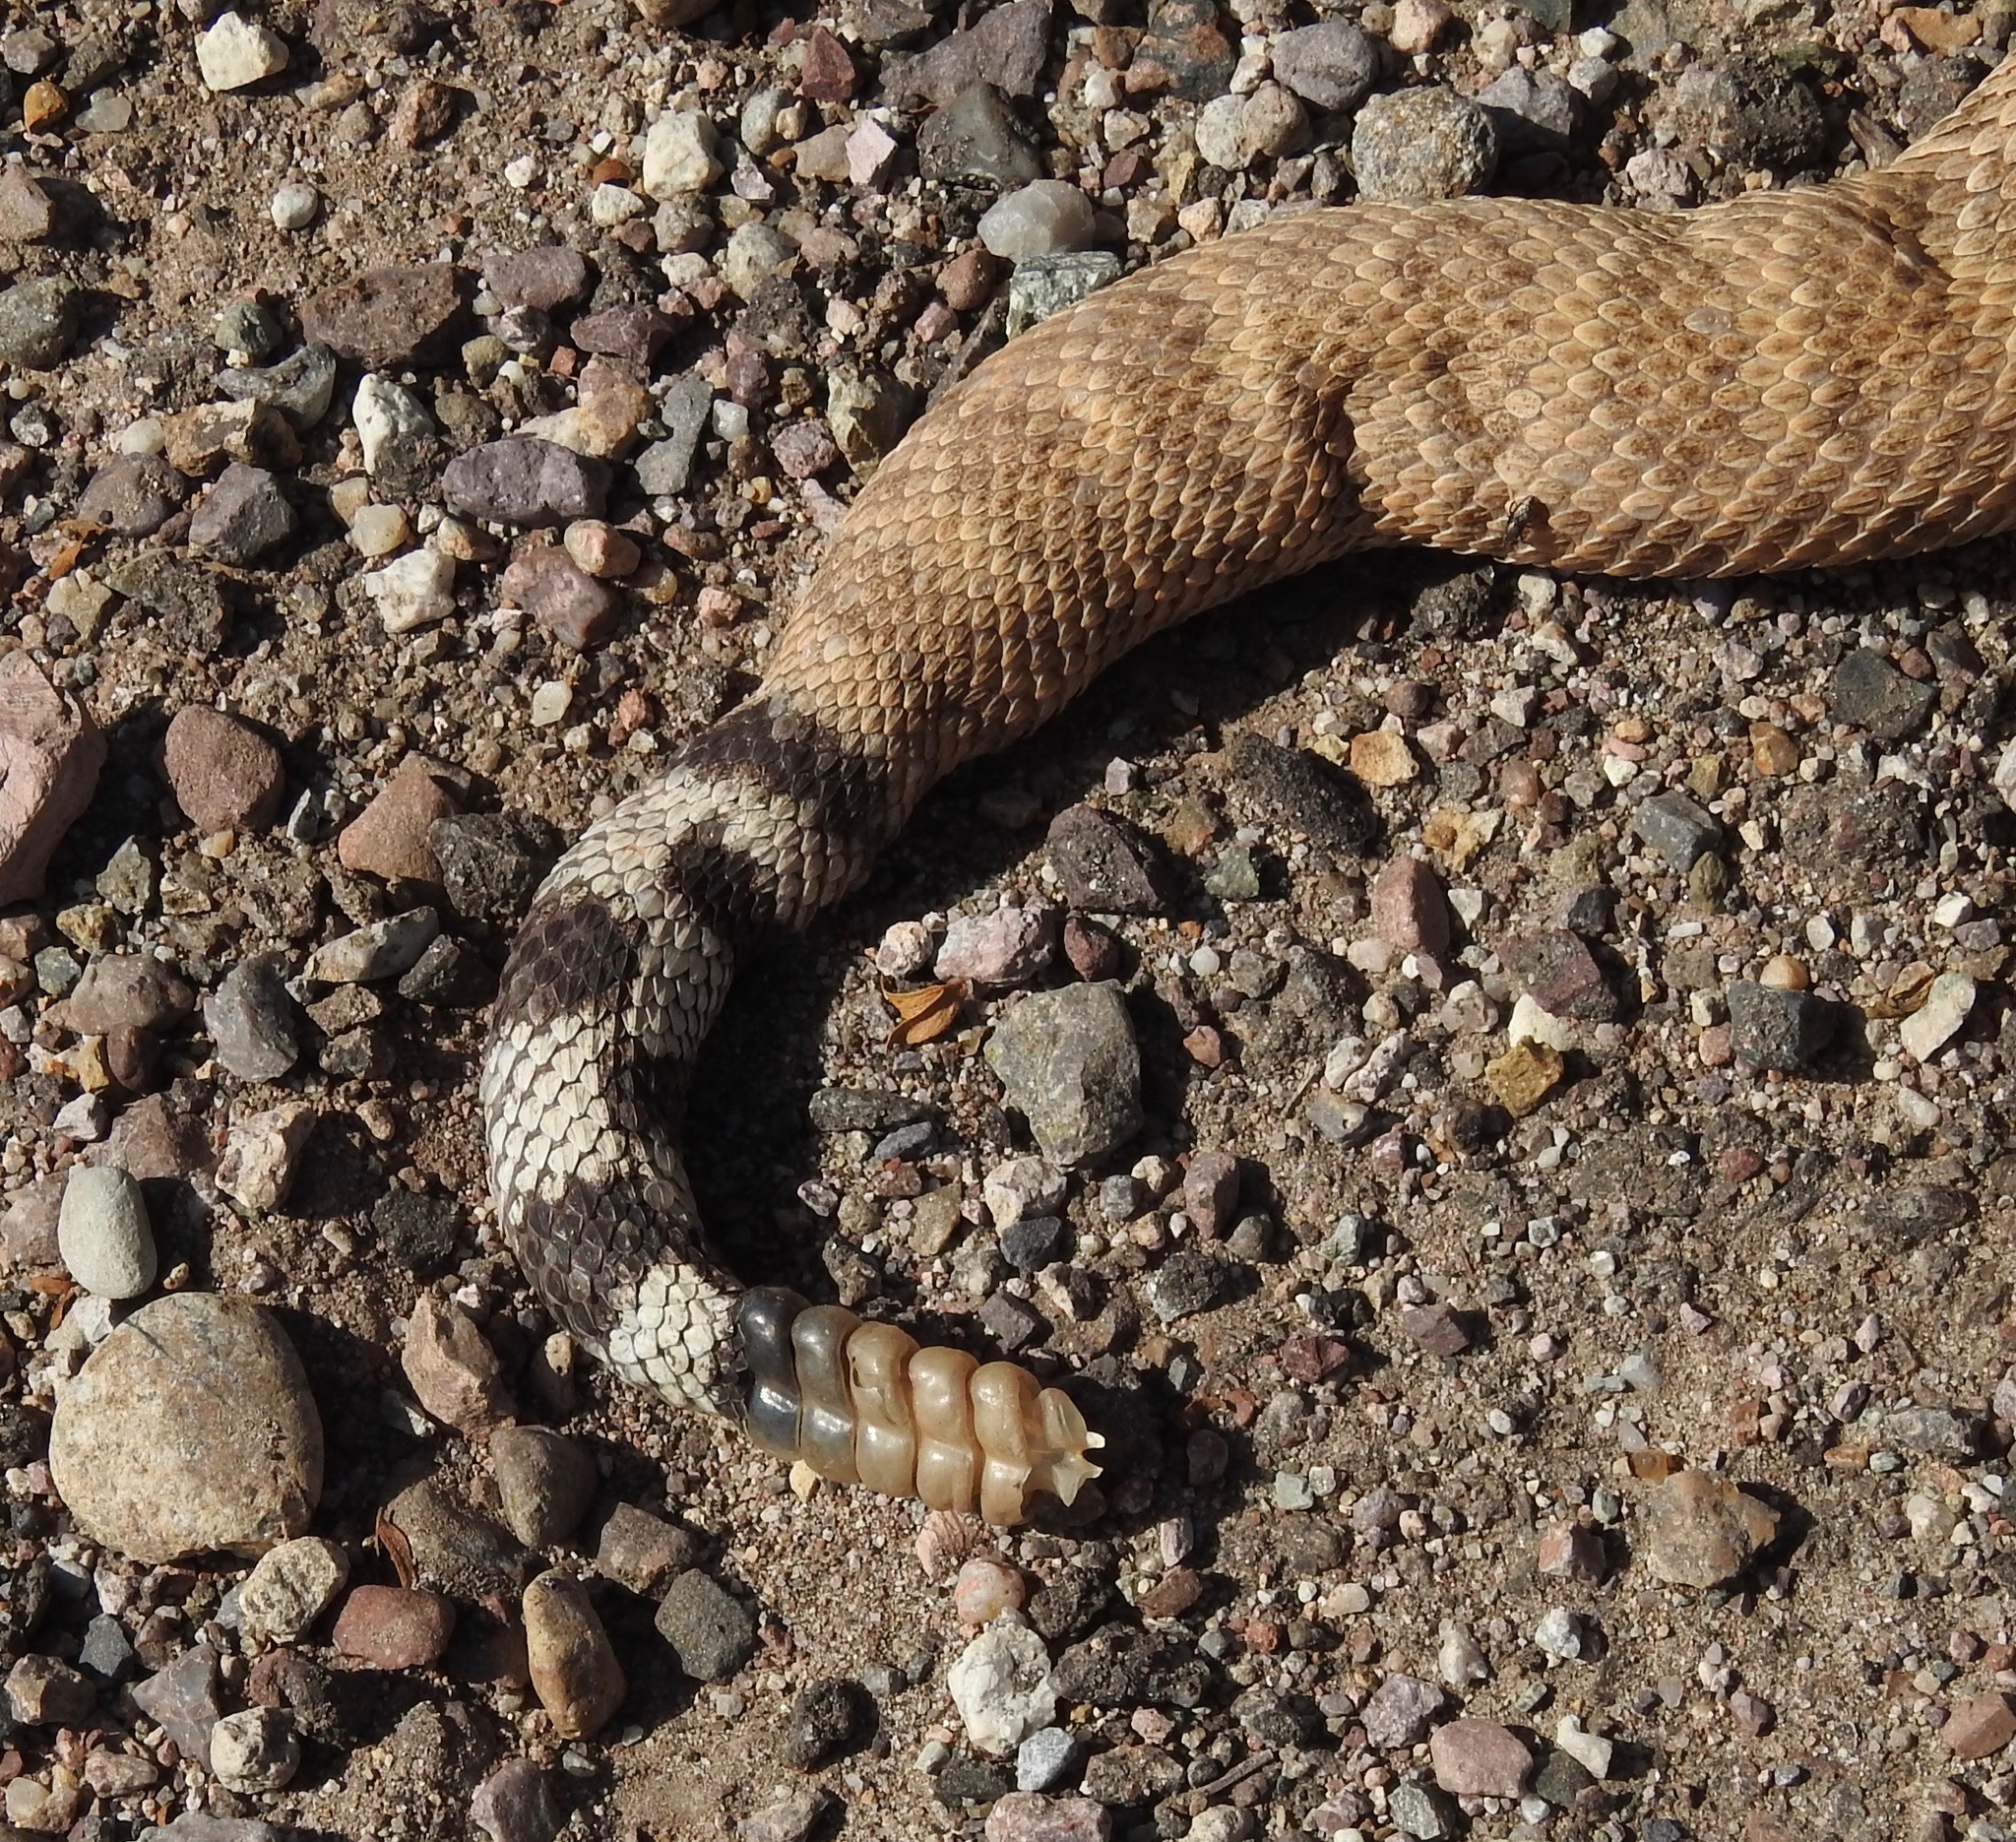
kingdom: Animalia
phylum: Chordata
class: Squamata
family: Viperidae
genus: Crotalus
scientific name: Crotalus atrox
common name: Western diamond-backed rattlesnake
